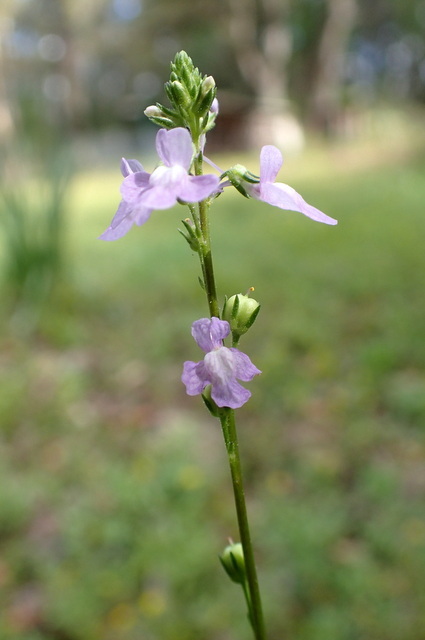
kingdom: Plantae
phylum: Tracheophyta
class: Magnoliopsida
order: Lamiales
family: Plantaginaceae
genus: Nuttallanthus
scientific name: Nuttallanthus canadensis
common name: Blue toadflax
